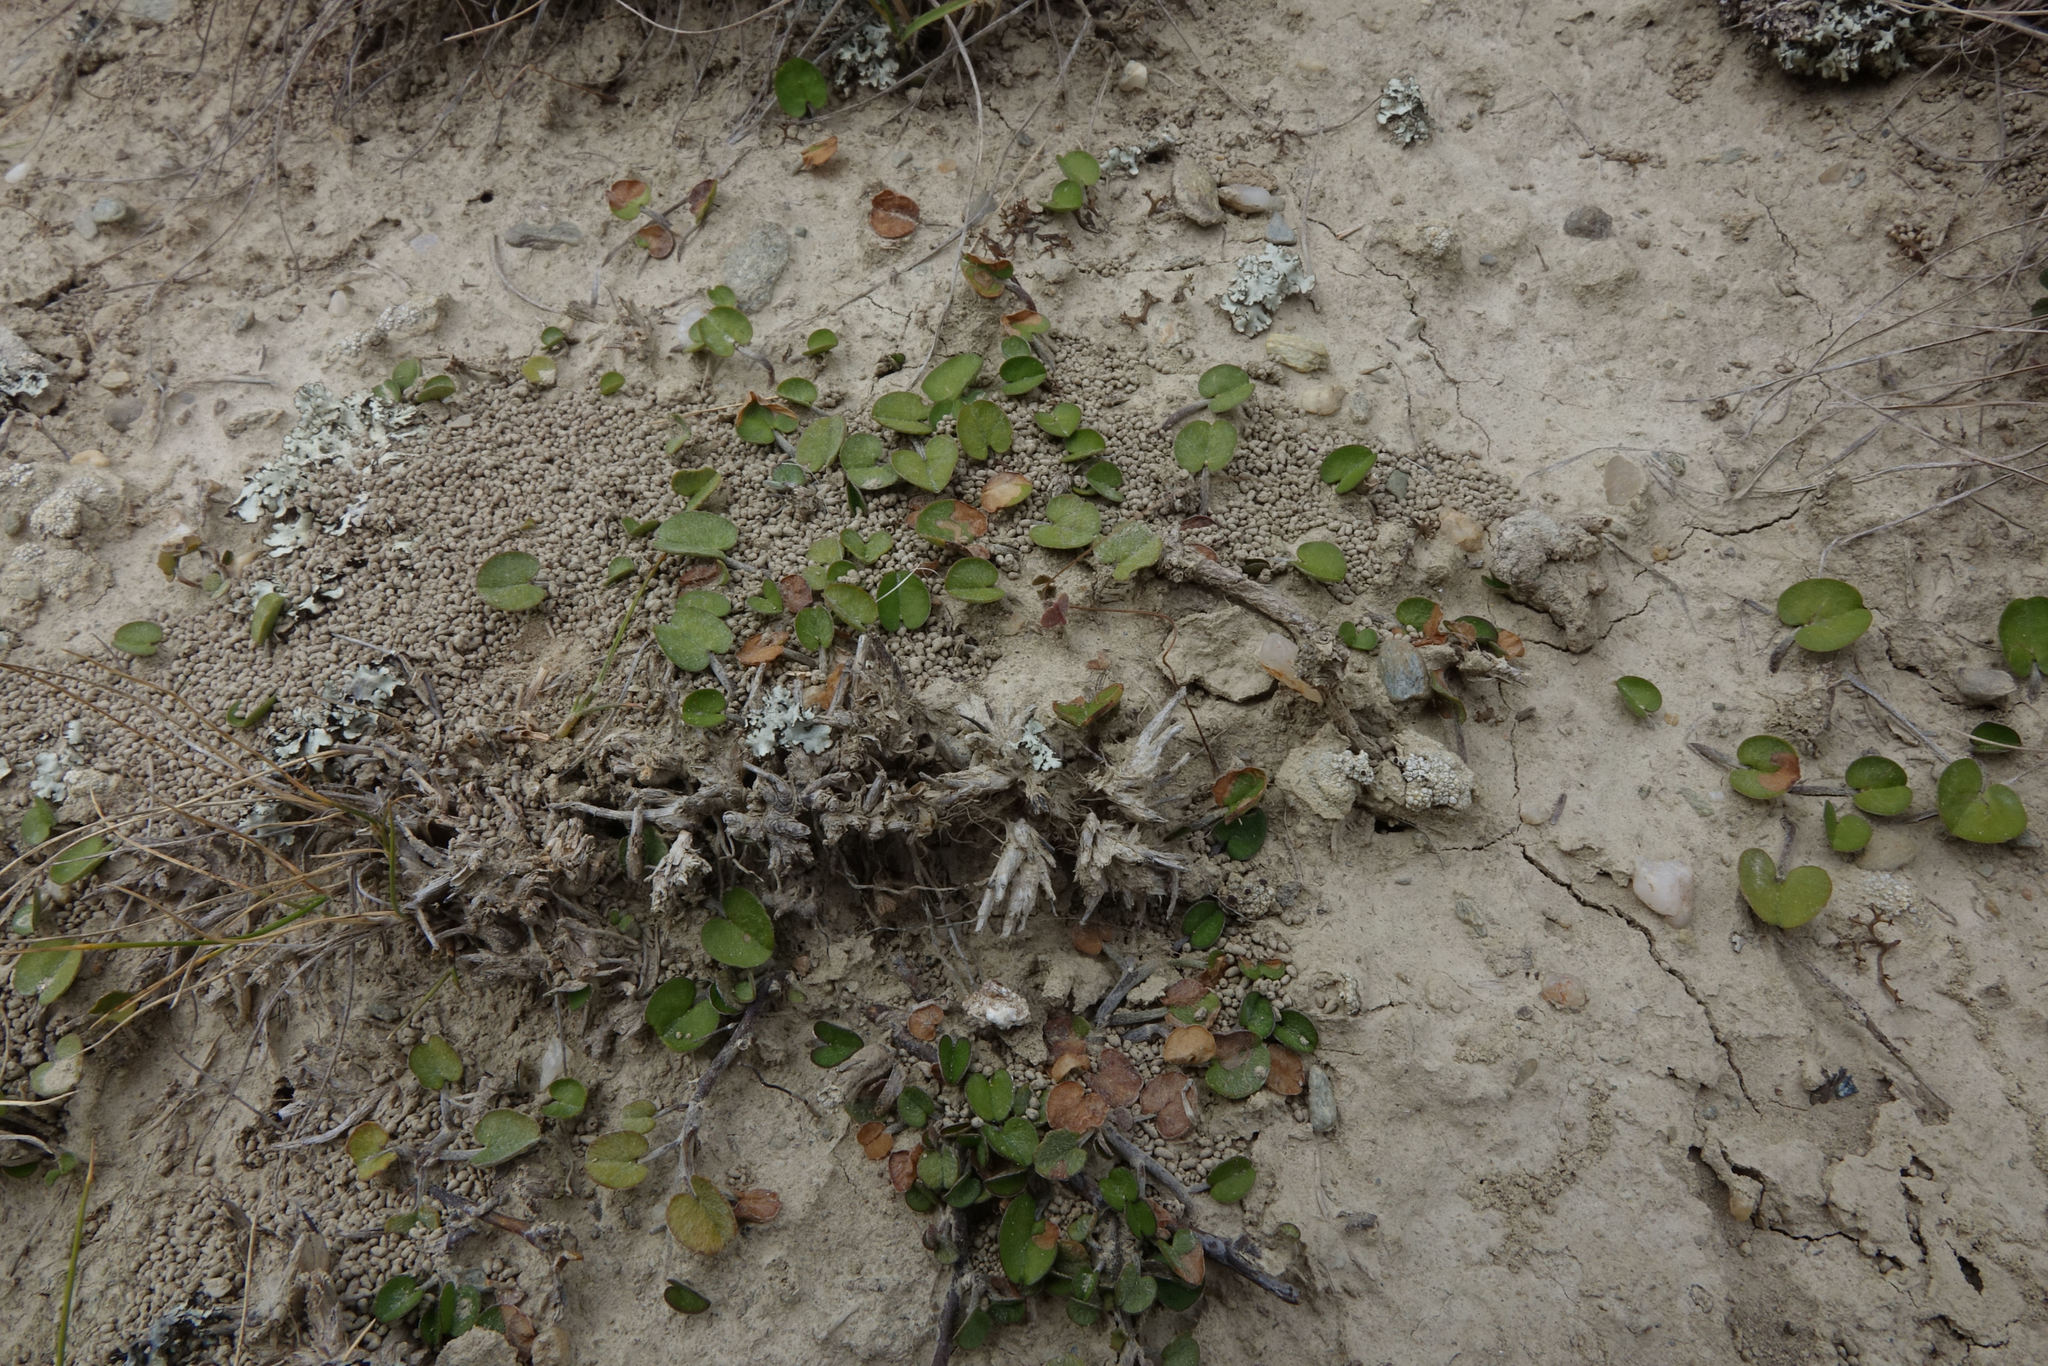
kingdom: Plantae
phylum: Tracheophyta
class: Magnoliopsida
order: Solanales
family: Convolvulaceae
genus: Dichondra
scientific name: Dichondra brevifolia
